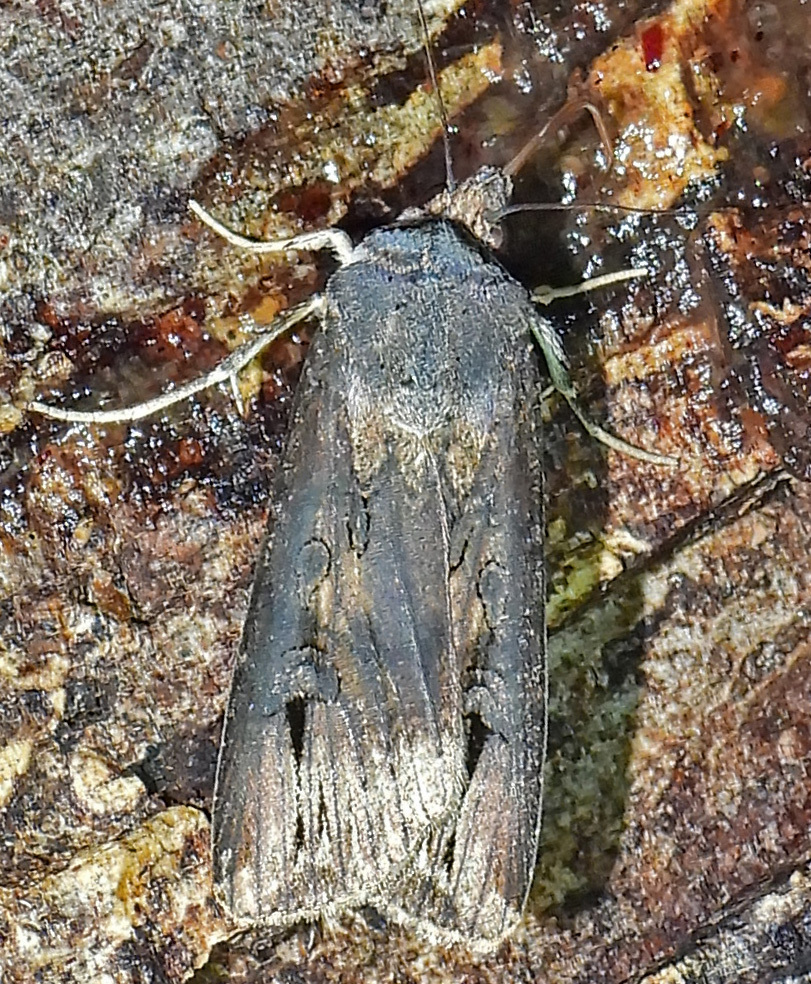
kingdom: Animalia
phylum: Arthropoda
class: Insecta
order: Lepidoptera
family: Noctuidae
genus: Agrotis
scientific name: Agrotis ipsilon
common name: Dark sword-grass
